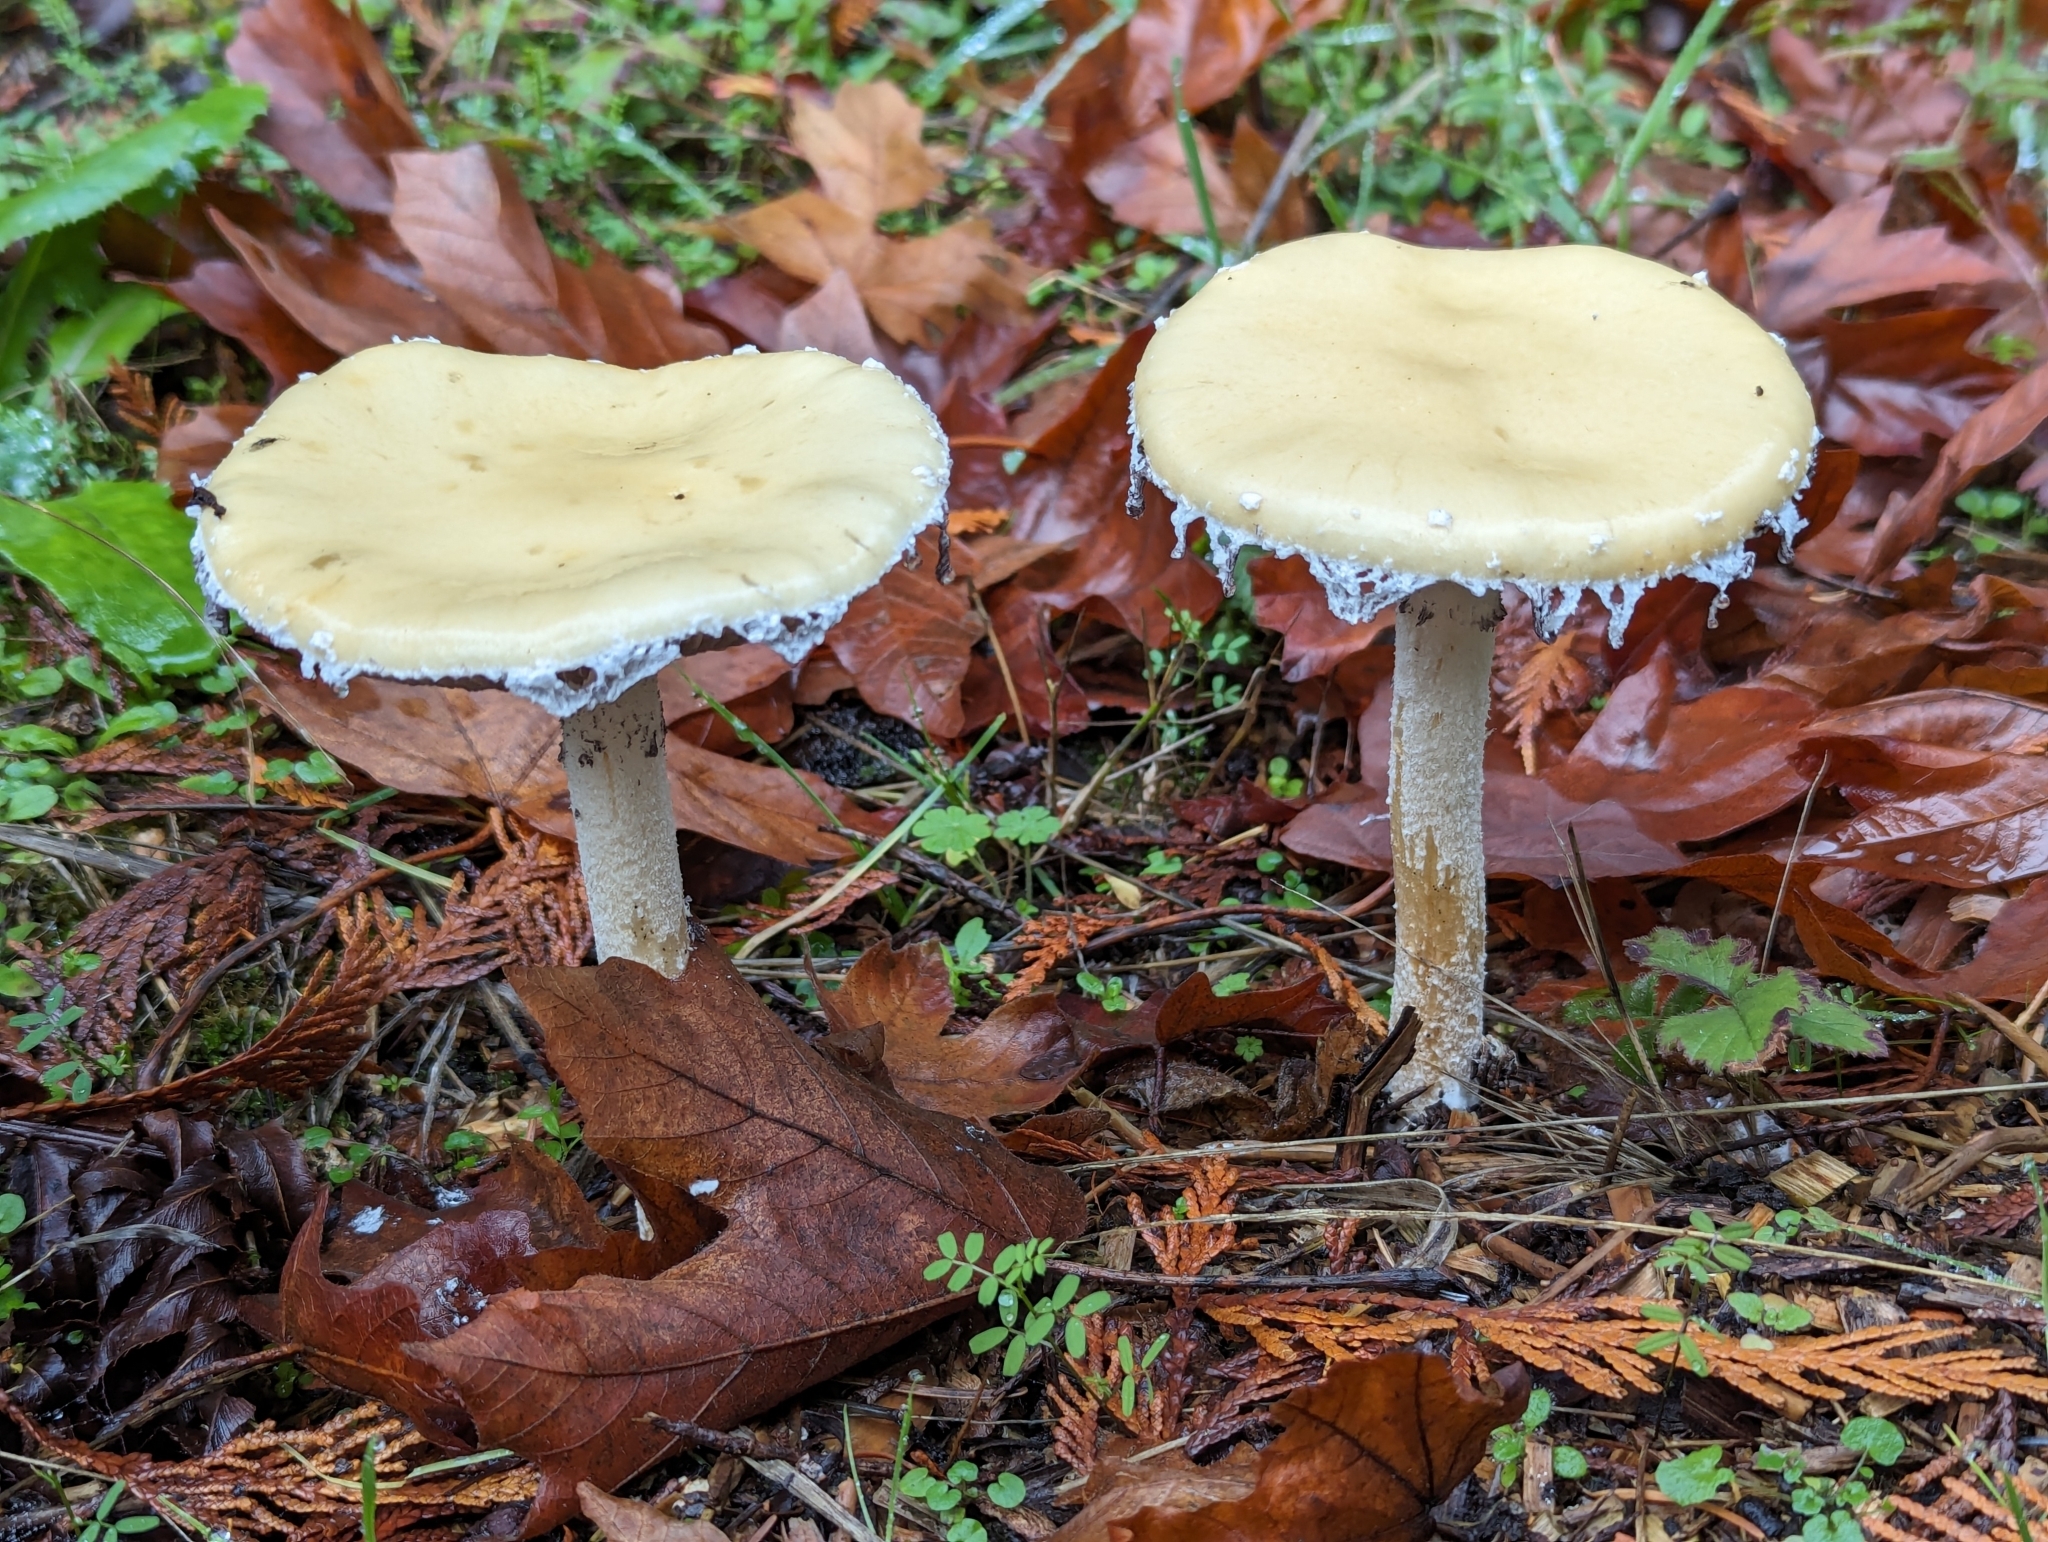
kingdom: Fungi
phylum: Basidiomycota
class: Agaricomycetes
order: Agaricales
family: Strophariaceae
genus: Stropharia
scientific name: Stropharia ambigua
